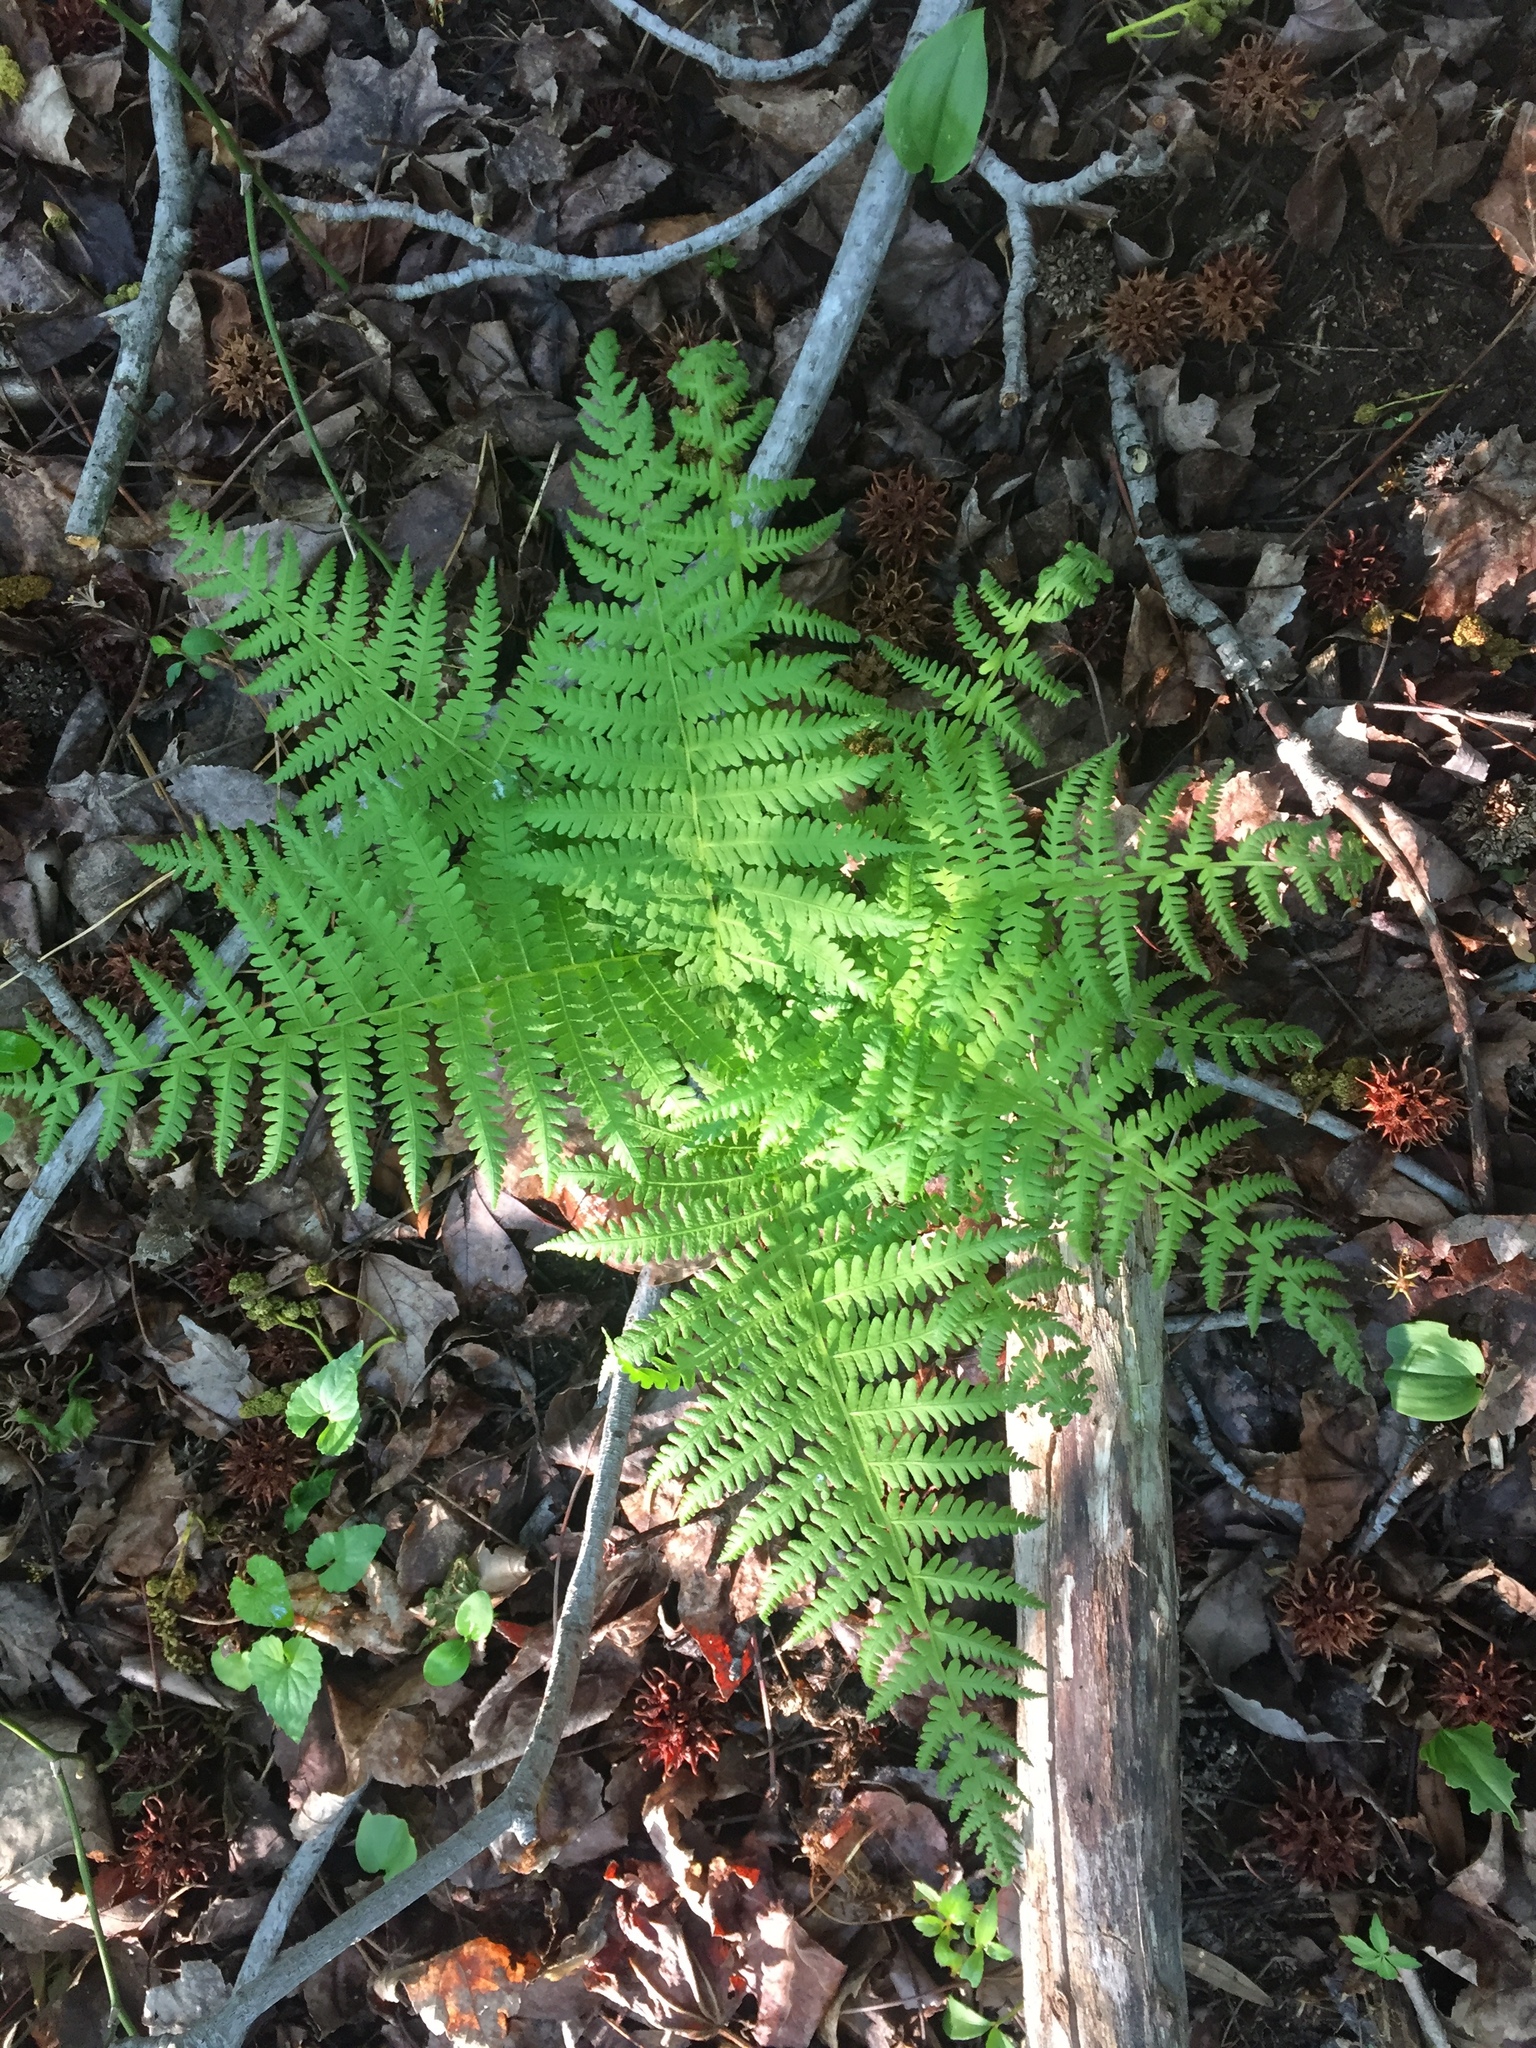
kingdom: Plantae
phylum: Tracheophyta
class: Polypodiopsida
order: Polypodiales
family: Athyriaceae
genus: Deparia
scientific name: Deparia acrostichoides
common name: Silver false spleenwort
